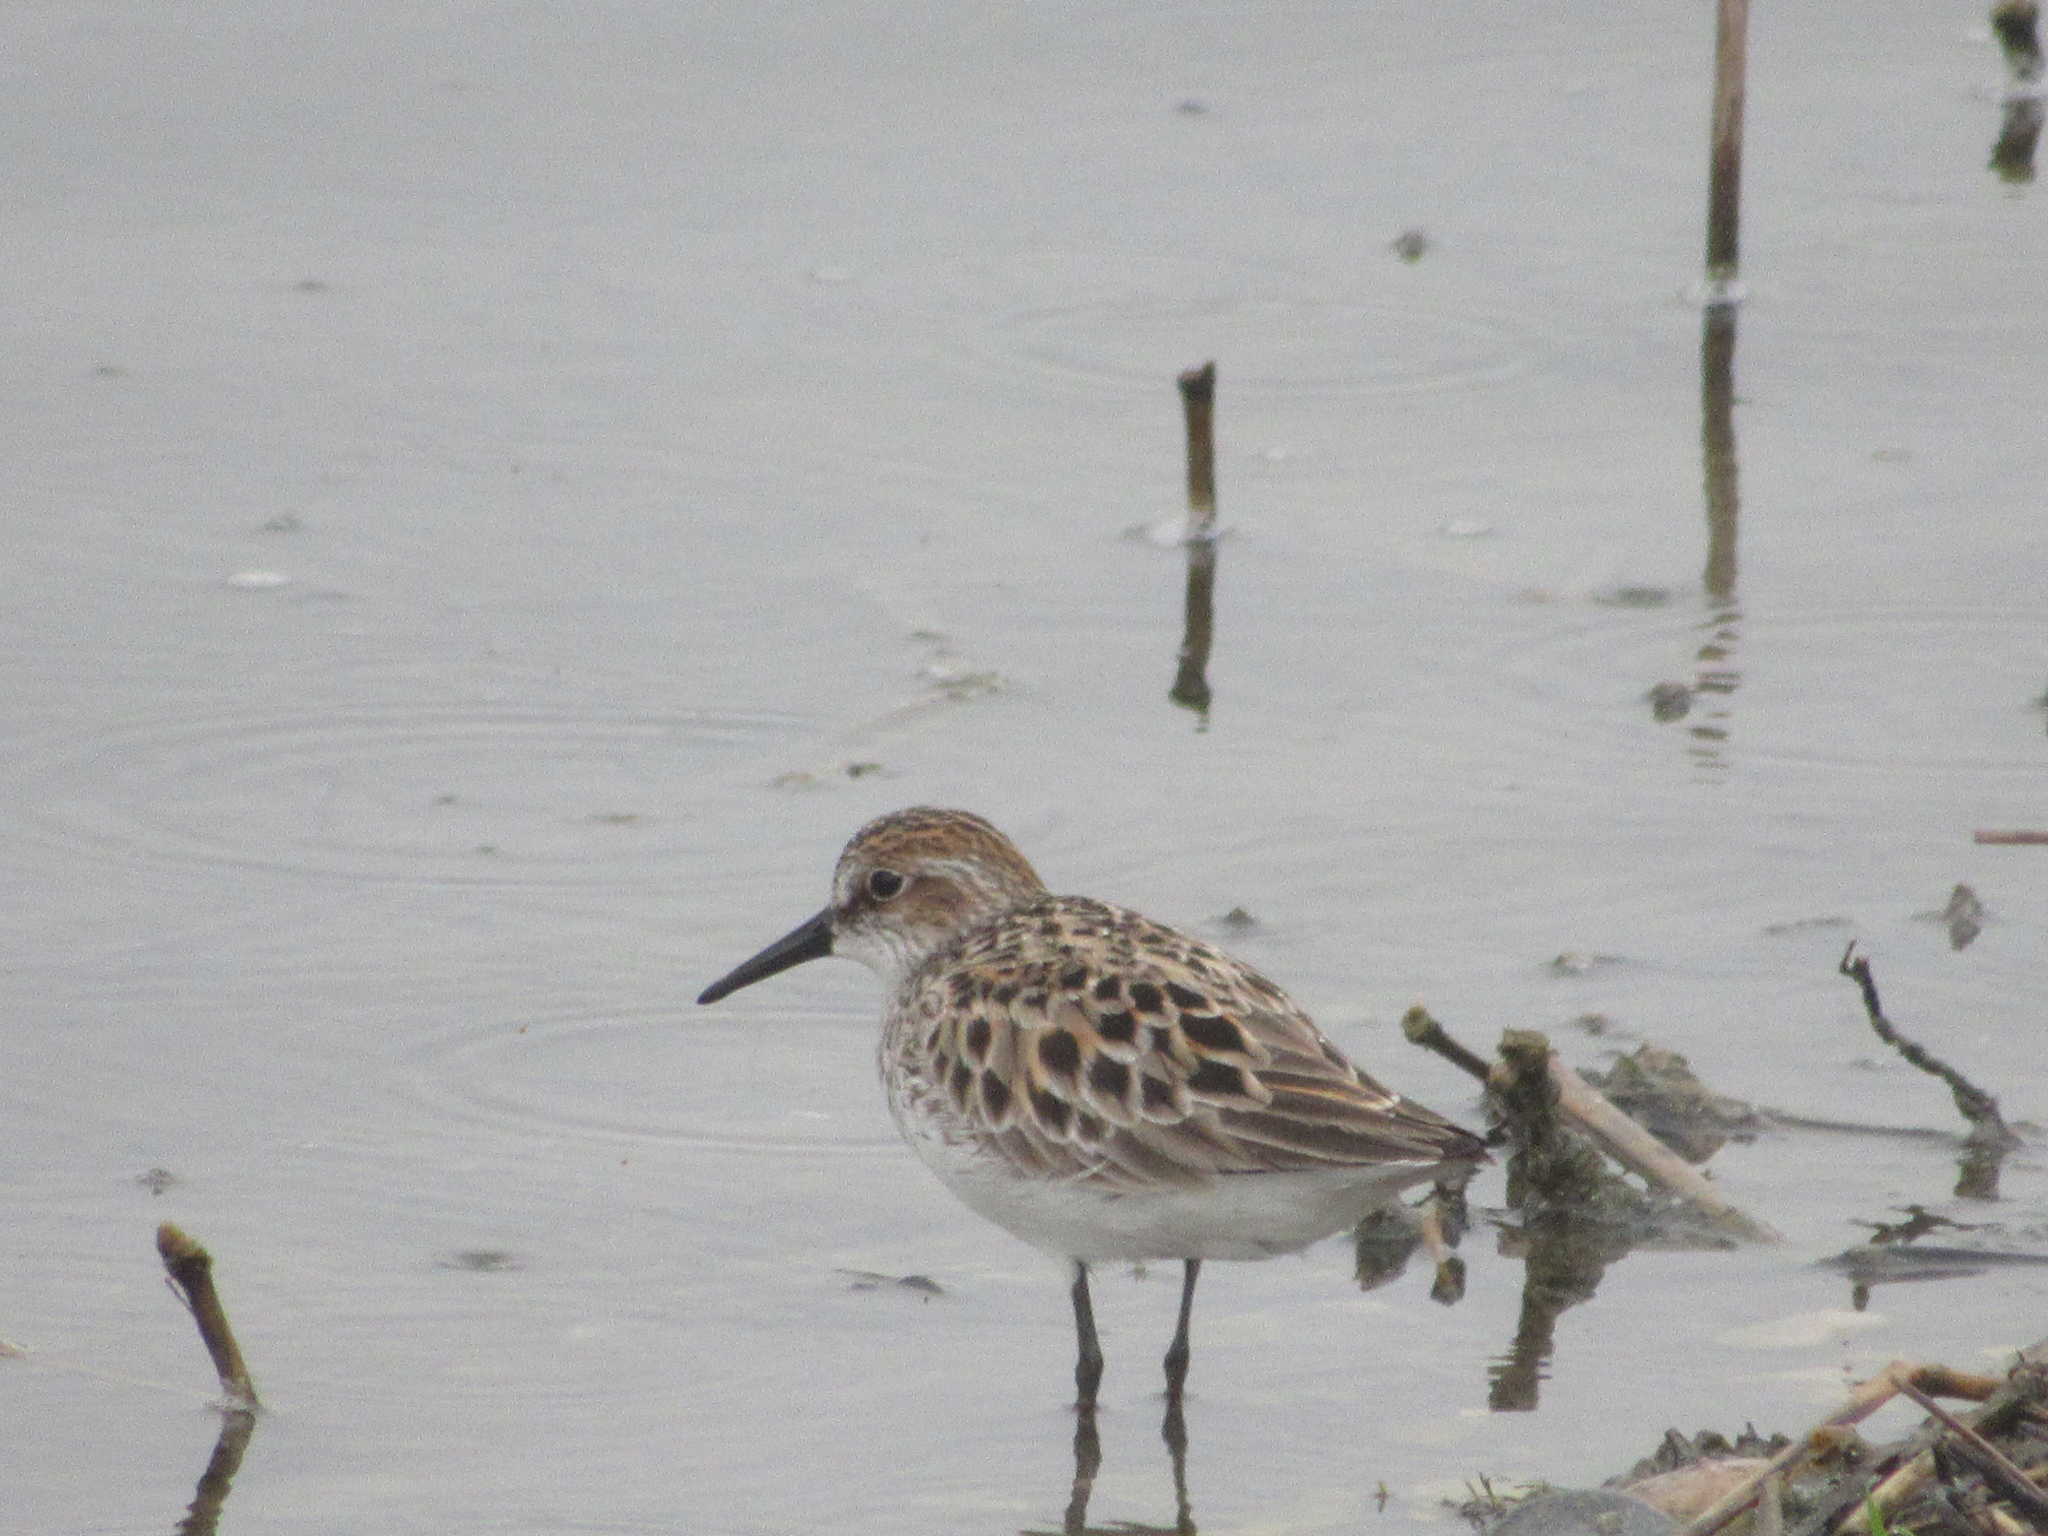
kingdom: Animalia
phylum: Chordata
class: Aves
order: Charadriiformes
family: Scolopacidae
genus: Calidris
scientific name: Calidris pusilla
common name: Semipalmated sandpiper
